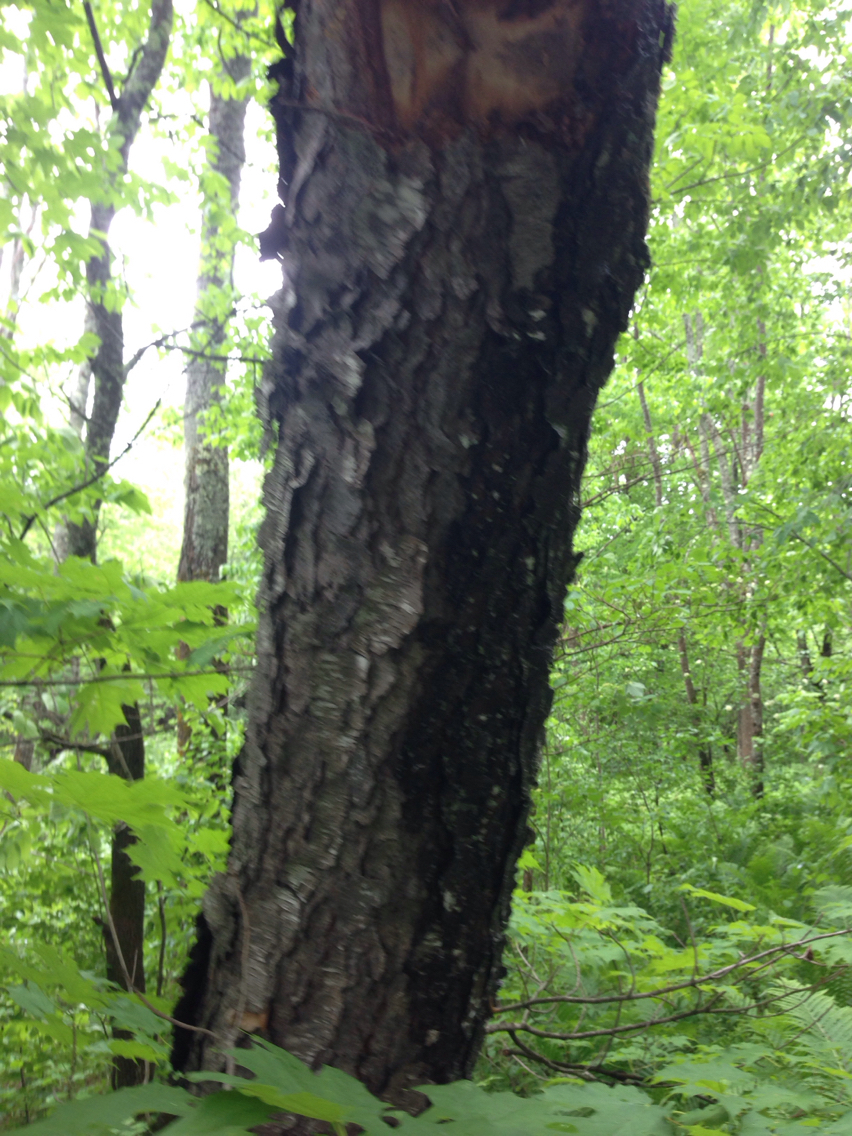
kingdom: Plantae
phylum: Tracheophyta
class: Magnoliopsida
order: Rosales
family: Rosaceae
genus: Prunus
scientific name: Prunus serotina
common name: Black cherry
